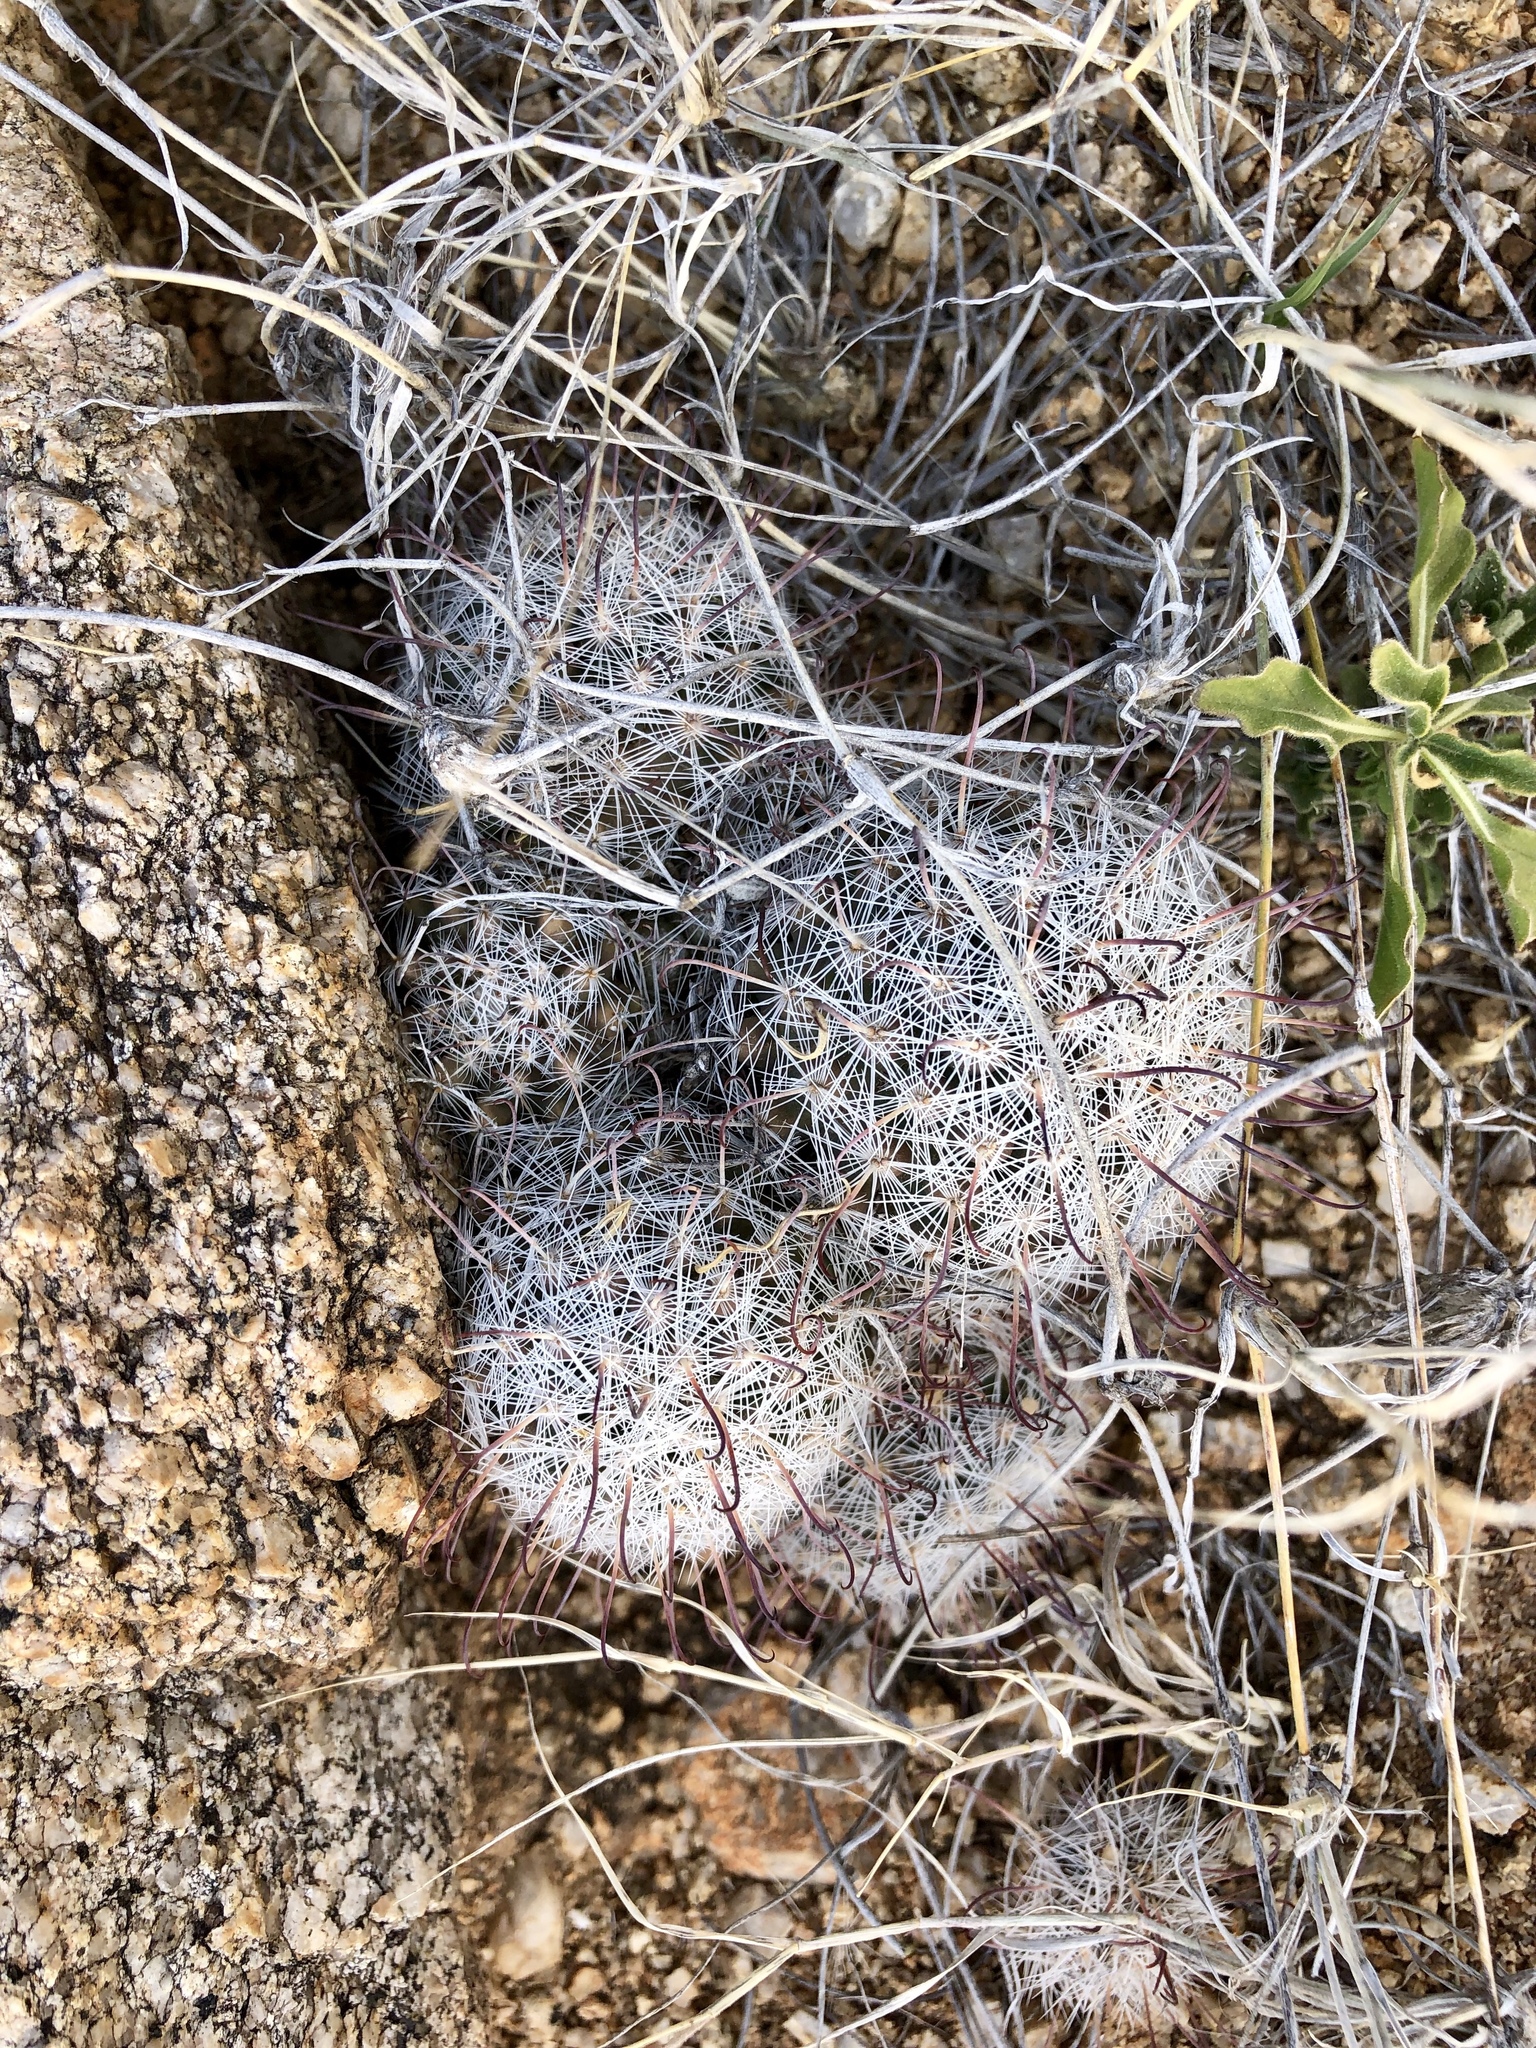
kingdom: Plantae
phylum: Tracheophyta
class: Magnoliopsida
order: Caryophyllales
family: Cactaceae
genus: Cochemiea
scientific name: Cochemiea grahamii
